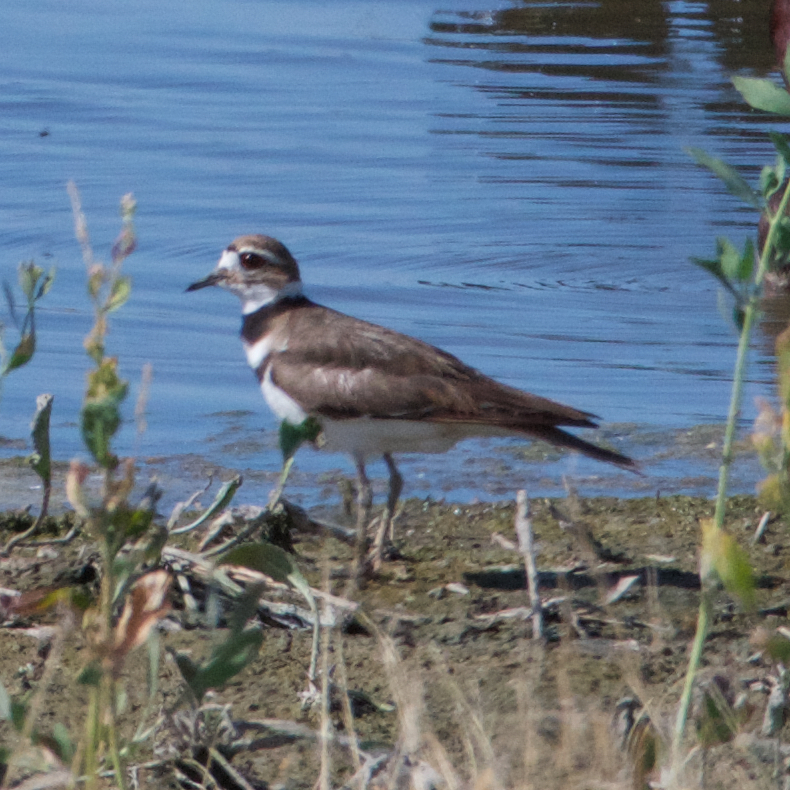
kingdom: Animalia
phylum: Chordata
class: Aves
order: Charadriiformes
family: Charadriidae
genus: Charadrius
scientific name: Charadrius vociferus
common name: Killdeer
